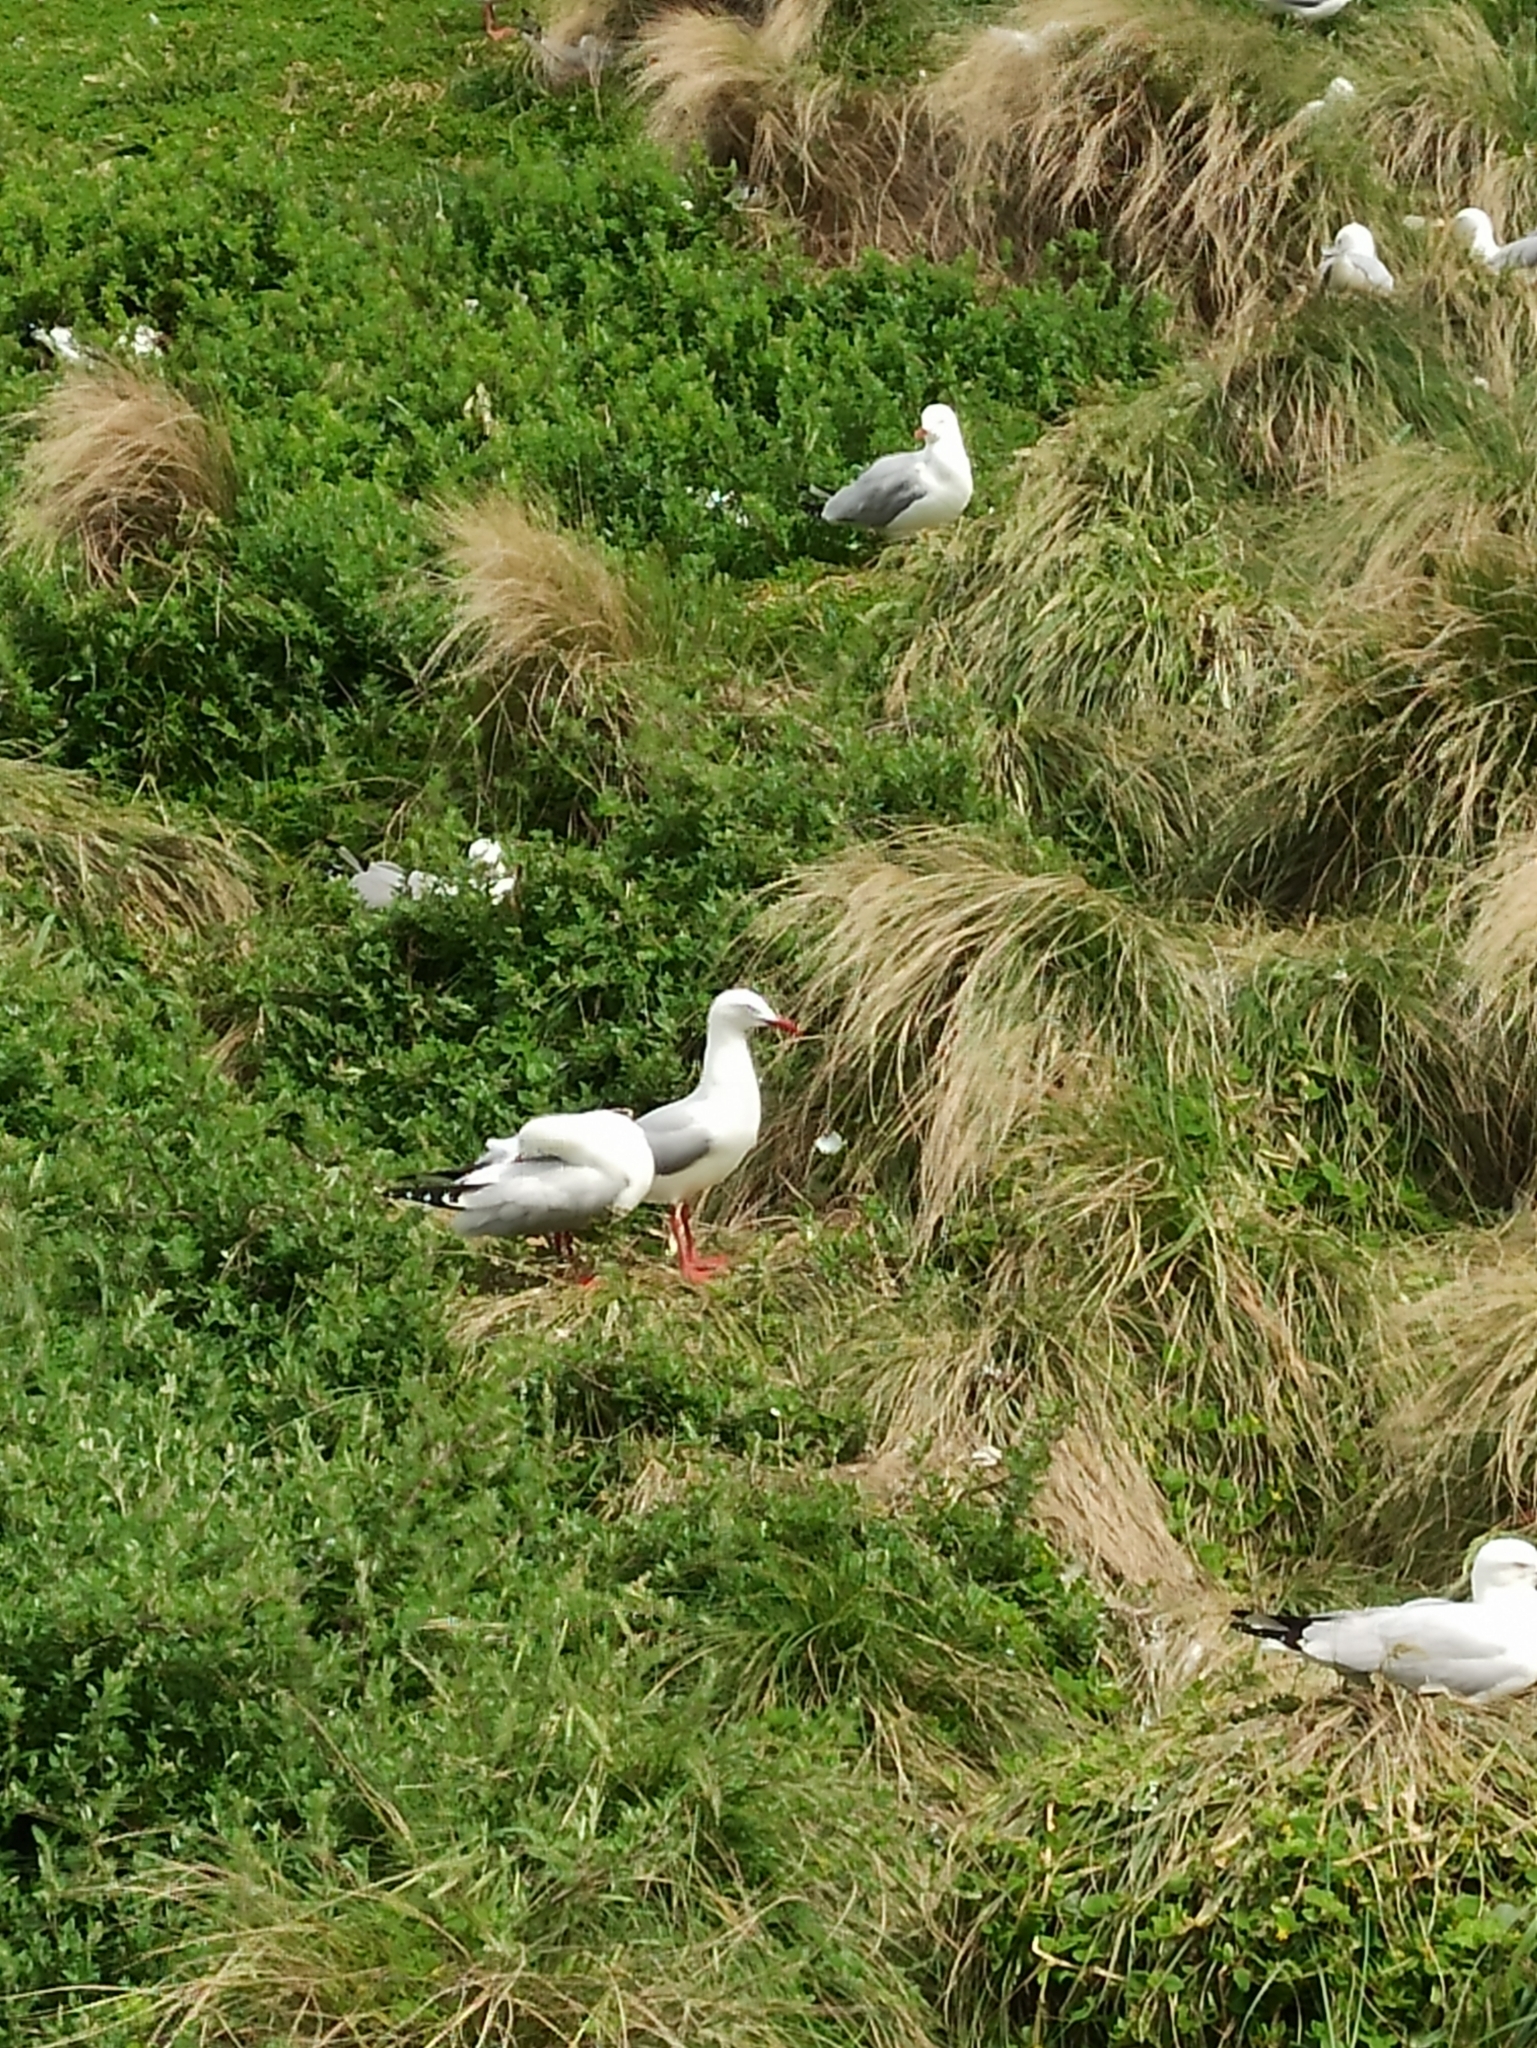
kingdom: Animalia
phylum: Chordata
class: Aves
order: Charadriiformes
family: Laridae
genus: Chroicocephalus
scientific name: Chroicocephalus novaehollandiae
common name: Silver gull
